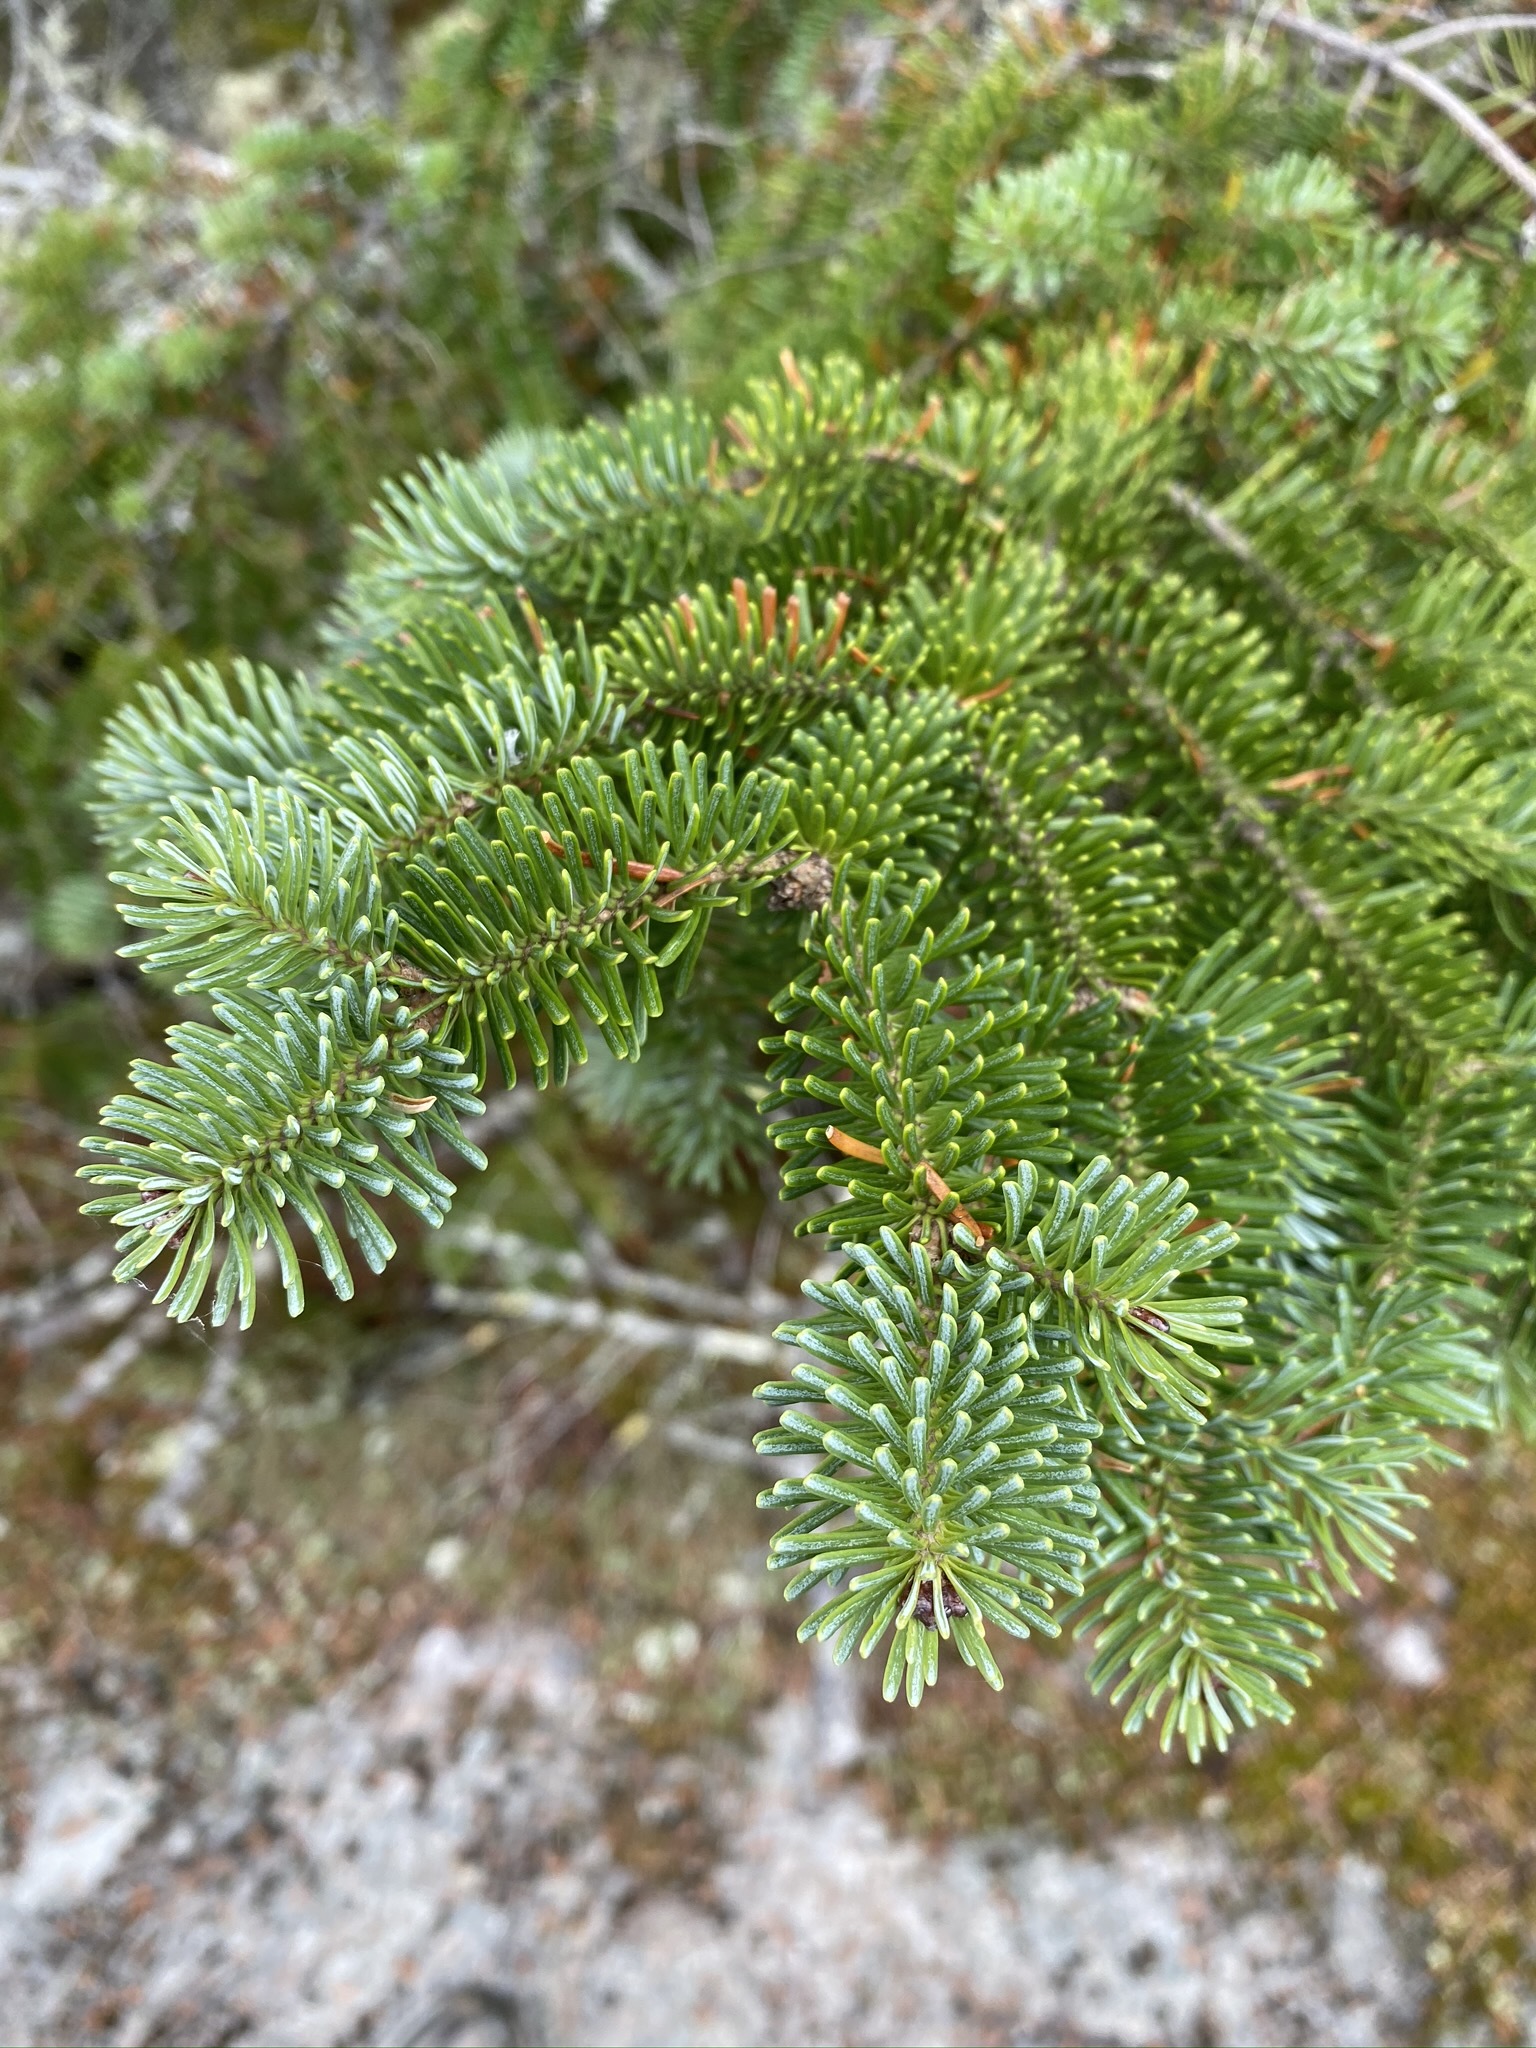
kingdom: Plantae
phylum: Tracheophyta
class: Pinopsida
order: Pinales
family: Pinaceae
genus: Abies
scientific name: Abies balsamea
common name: Balsam fir
